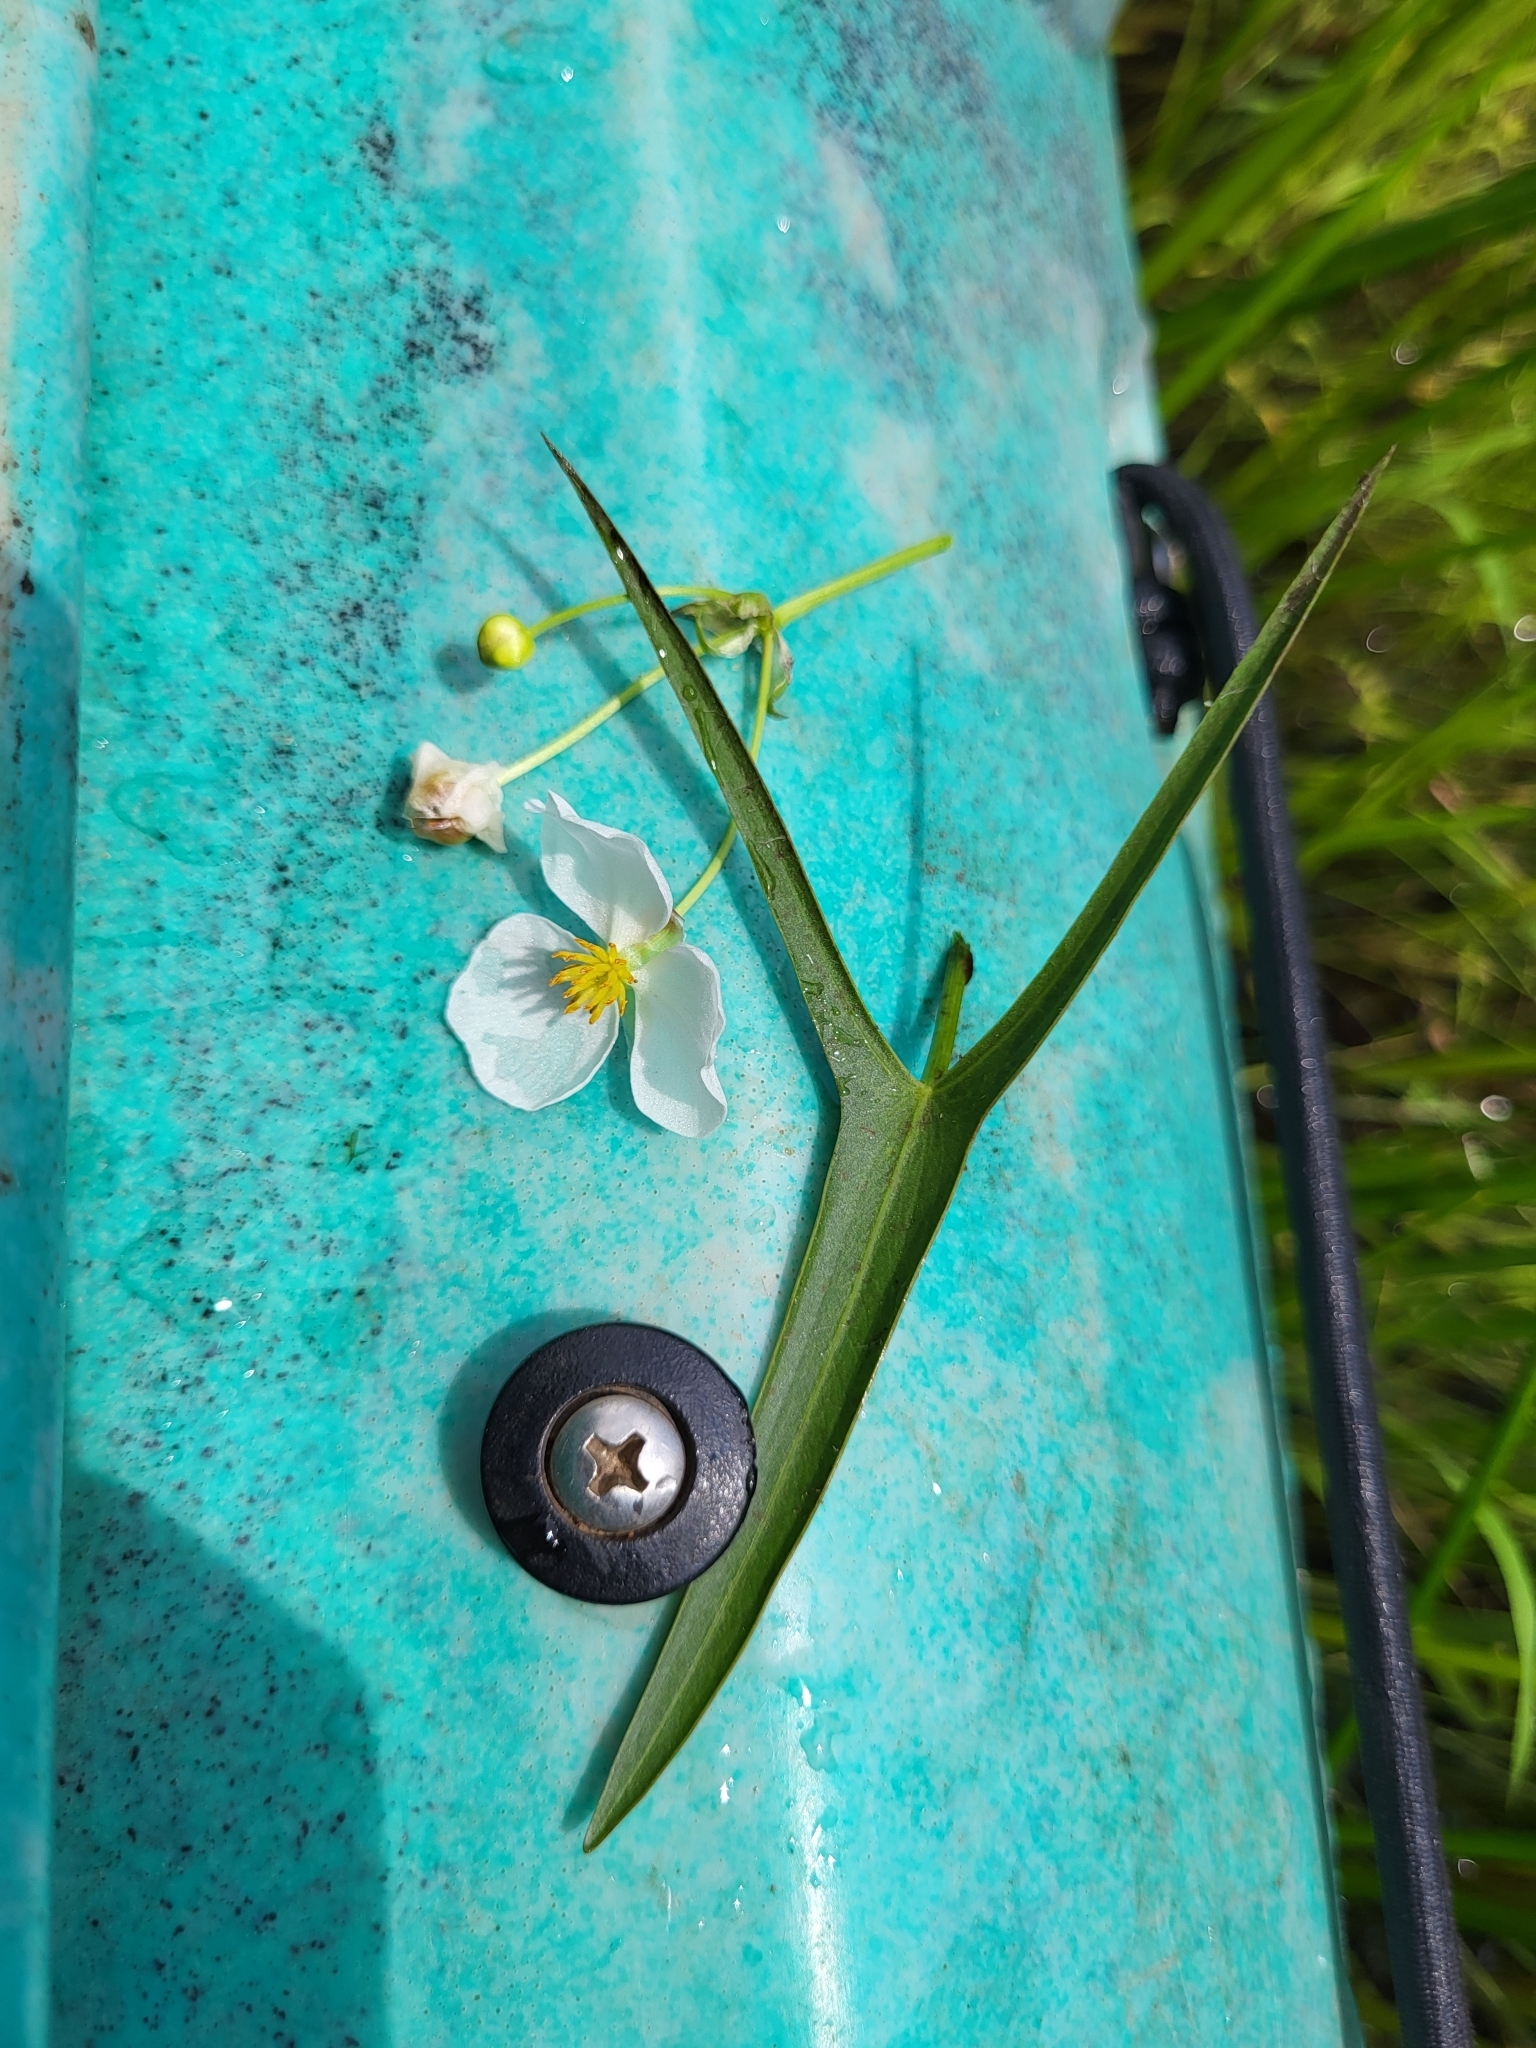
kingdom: Plantae
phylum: Tracheophyta
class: Liliopsida
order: Alismatales
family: Alismataceae
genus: Sagittaria
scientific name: Sagittaria engelmanniana
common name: Acid-water arrowhead
